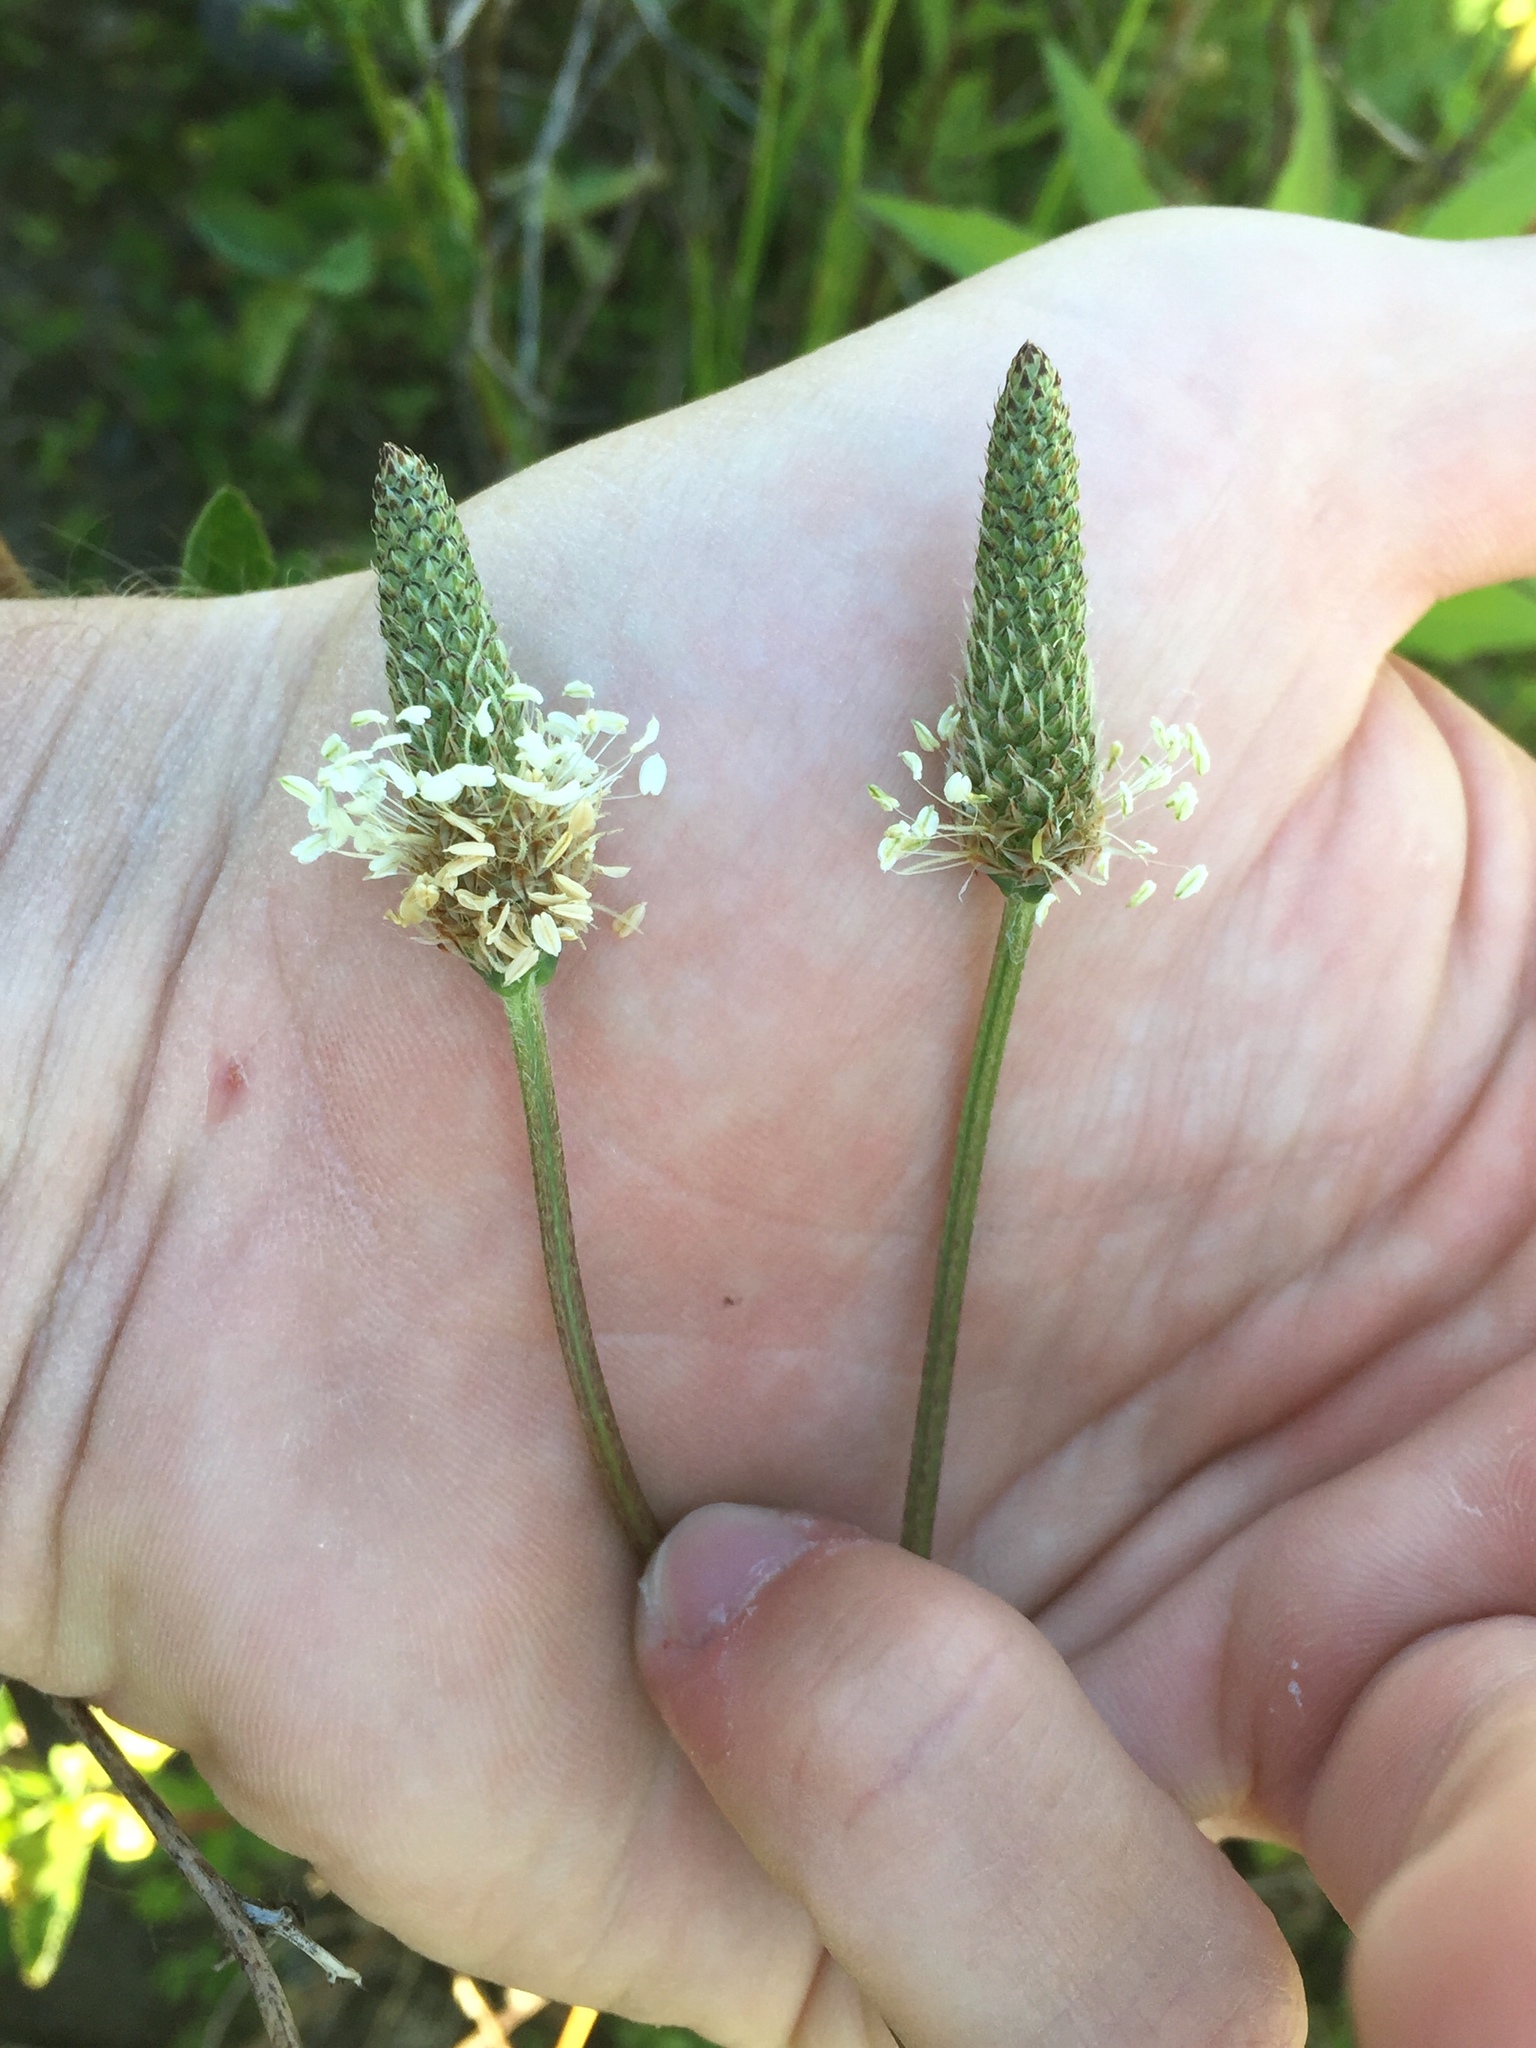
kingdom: Plantae
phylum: Tracheophyta
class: Magnoliopsida
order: Lamiales
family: Plantaginaceae
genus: Plantago
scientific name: Plantago lanceolata
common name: Ribwort plantain
